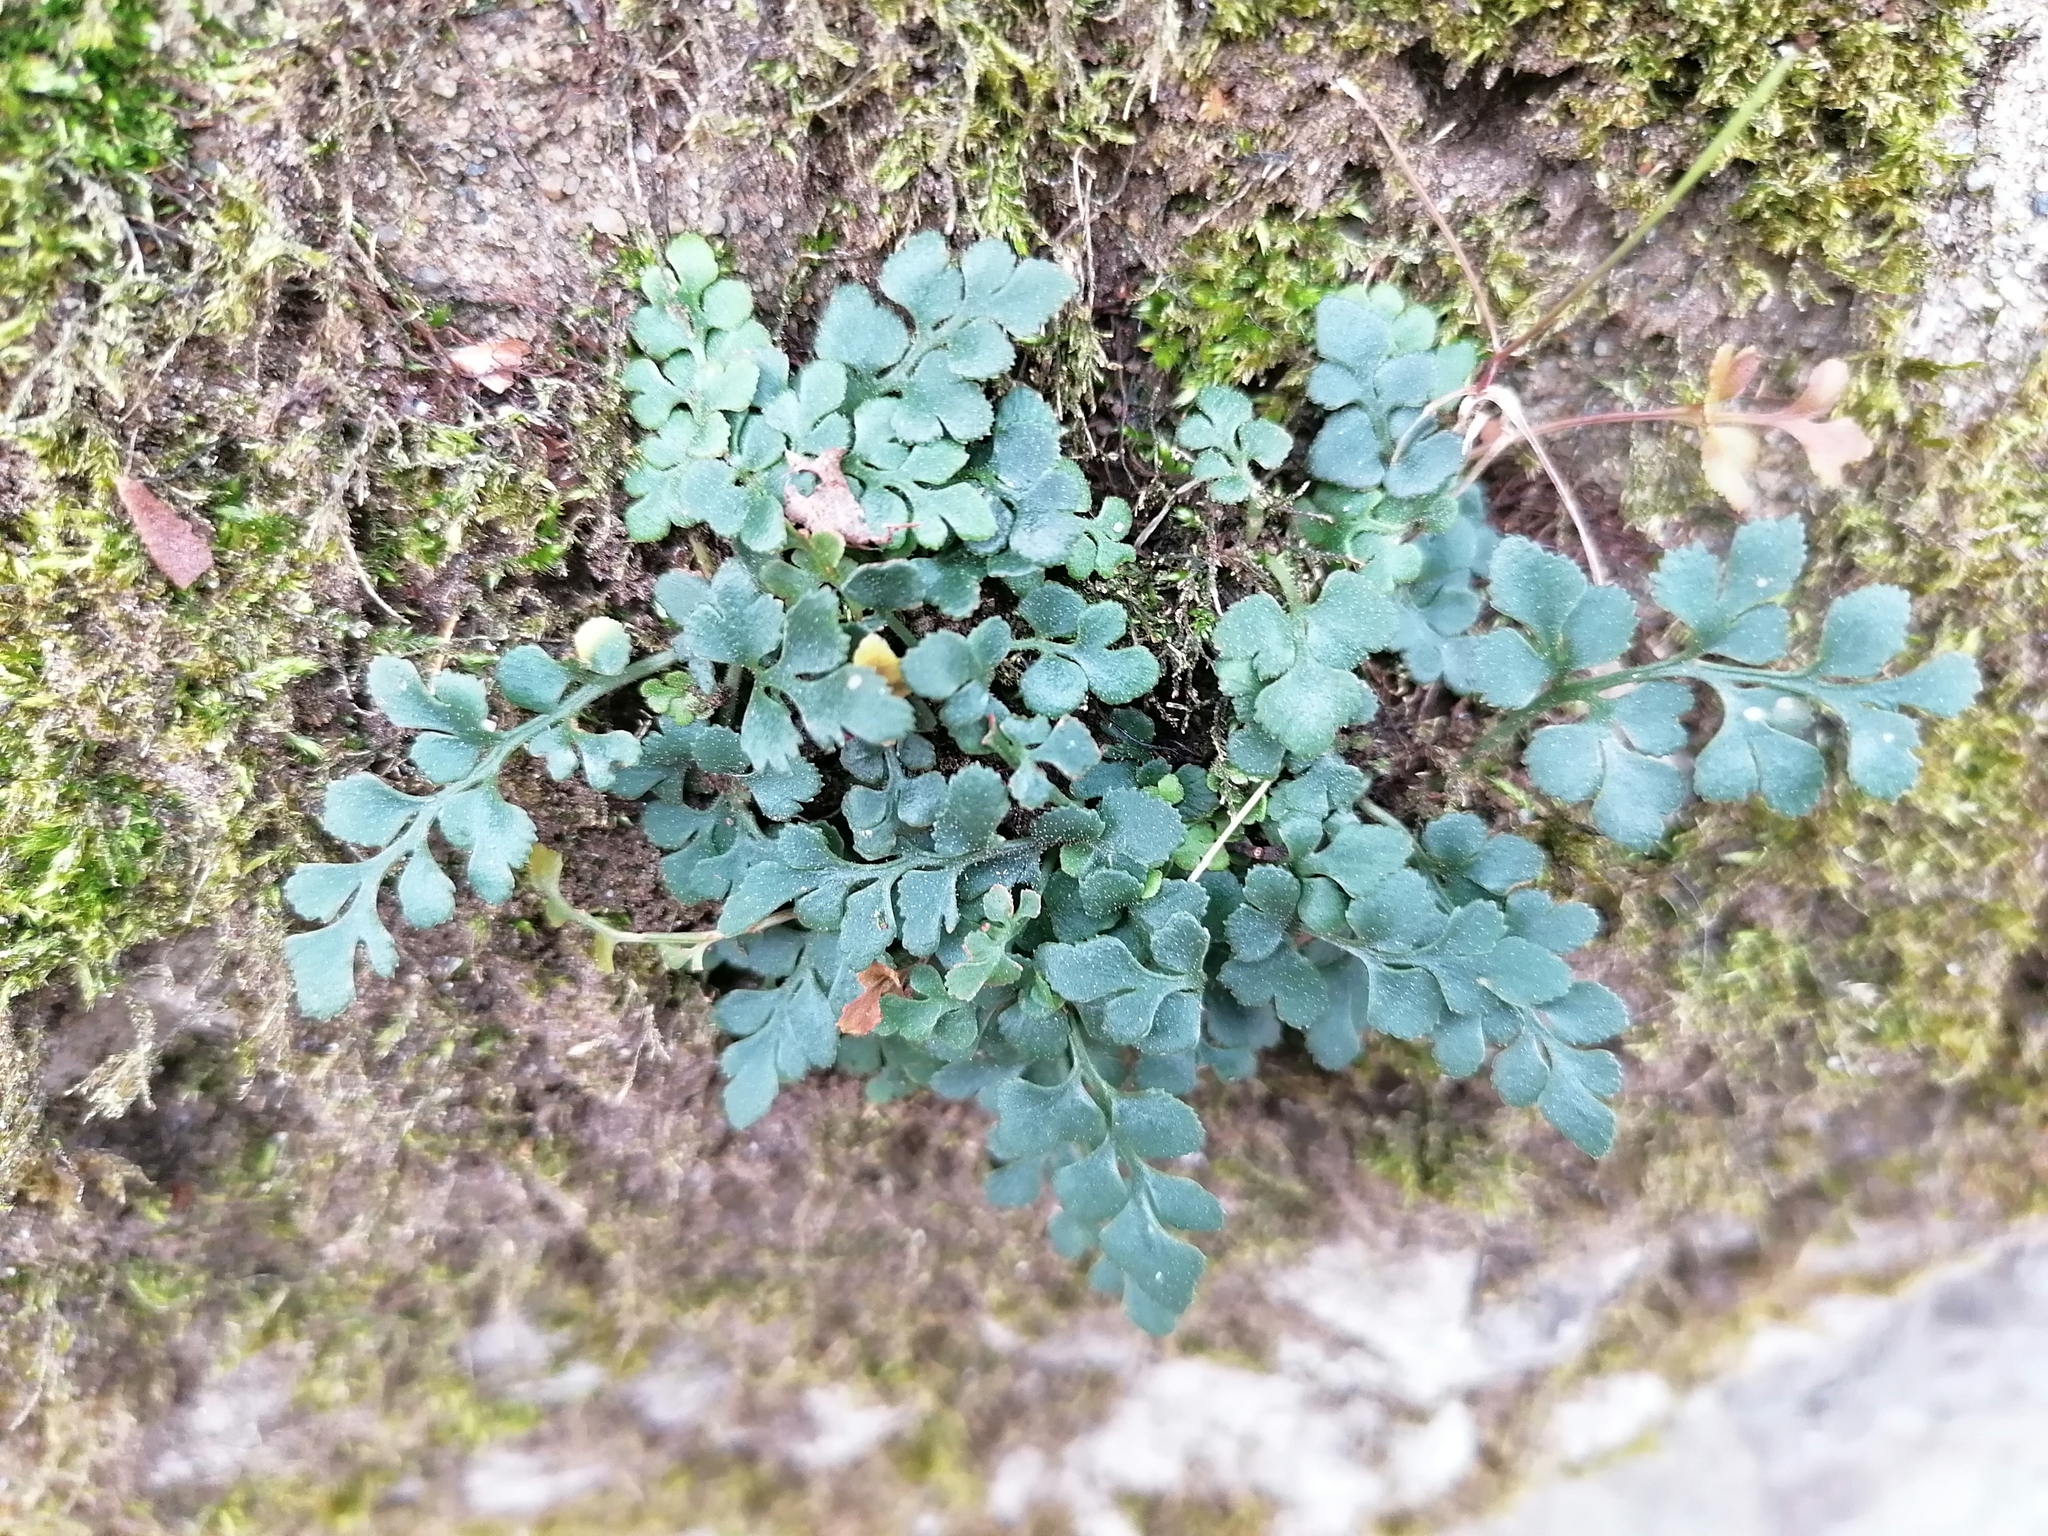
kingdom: Plantae
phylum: Tracheophyta
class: Polypodiopsida
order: Polypodiales
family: Aspleniaceae
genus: Asplenium
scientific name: Asplenium ruta-muraria
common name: Wall-rue
